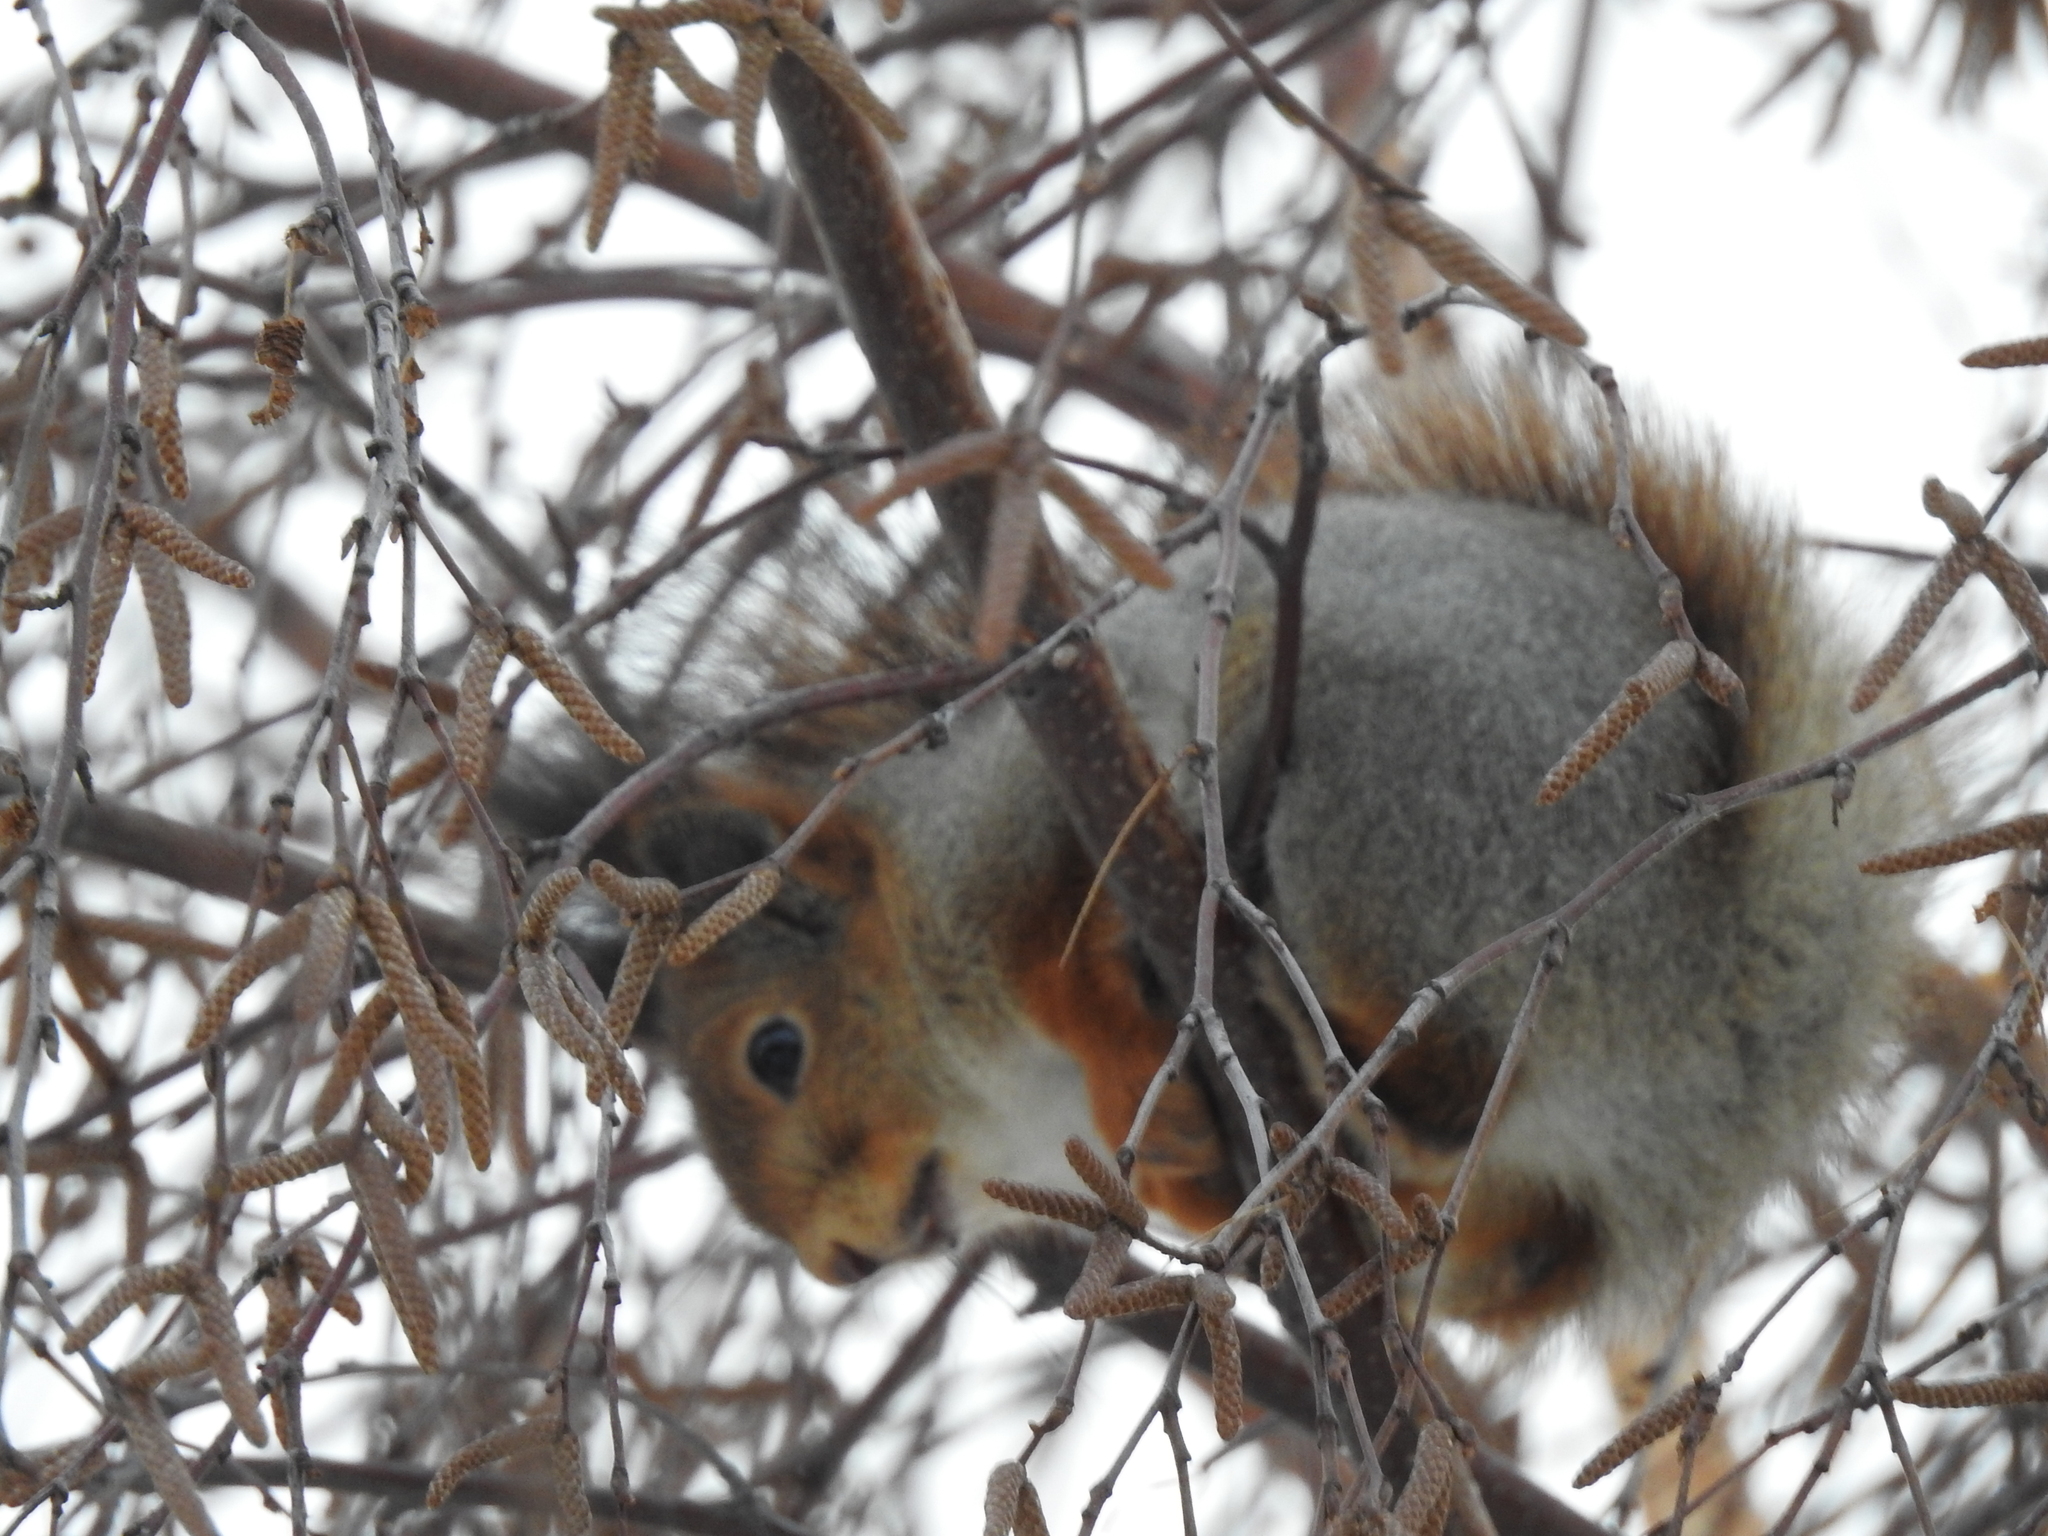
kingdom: Animalia
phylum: Chordata
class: Mammalia
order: Rodentia
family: Sciuridae
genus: Sciurus
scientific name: Sciurus vulgaris
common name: Eurasian red squirrel
